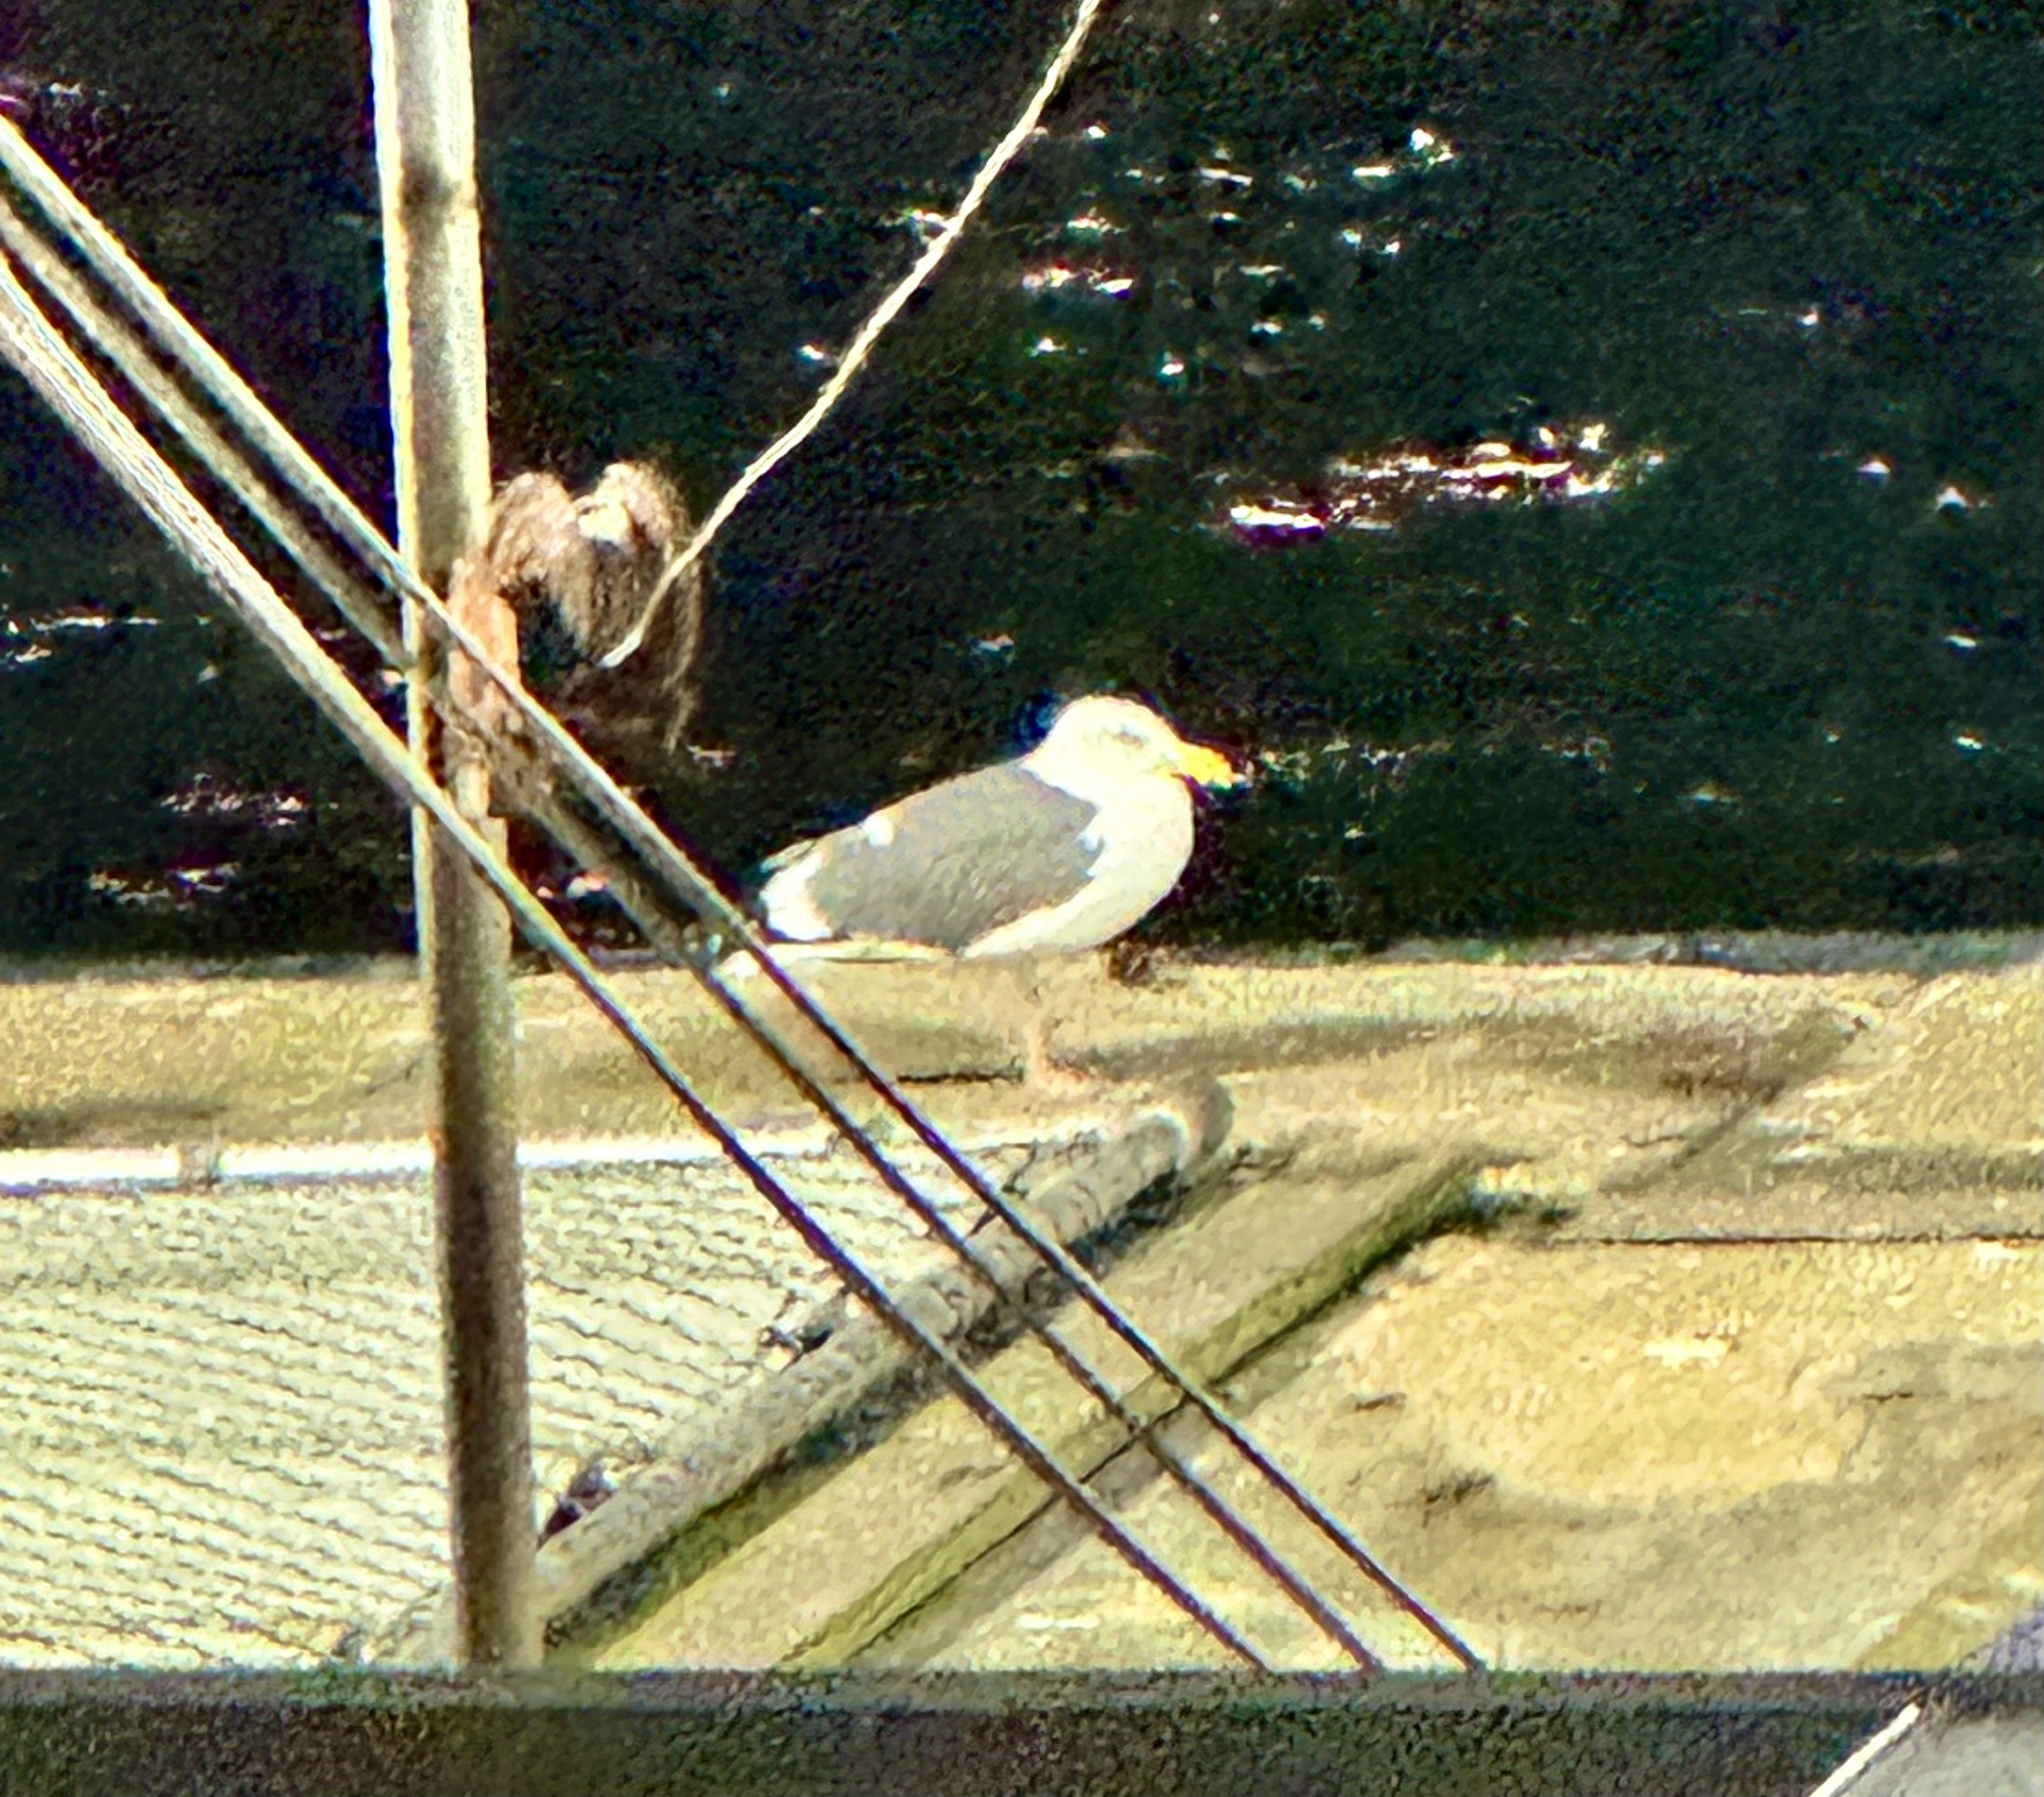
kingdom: Animalia
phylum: Chordata
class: Aves
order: Charadriiformes
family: Laridae
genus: Larus
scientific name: Larus occidentalis
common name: Western gull
